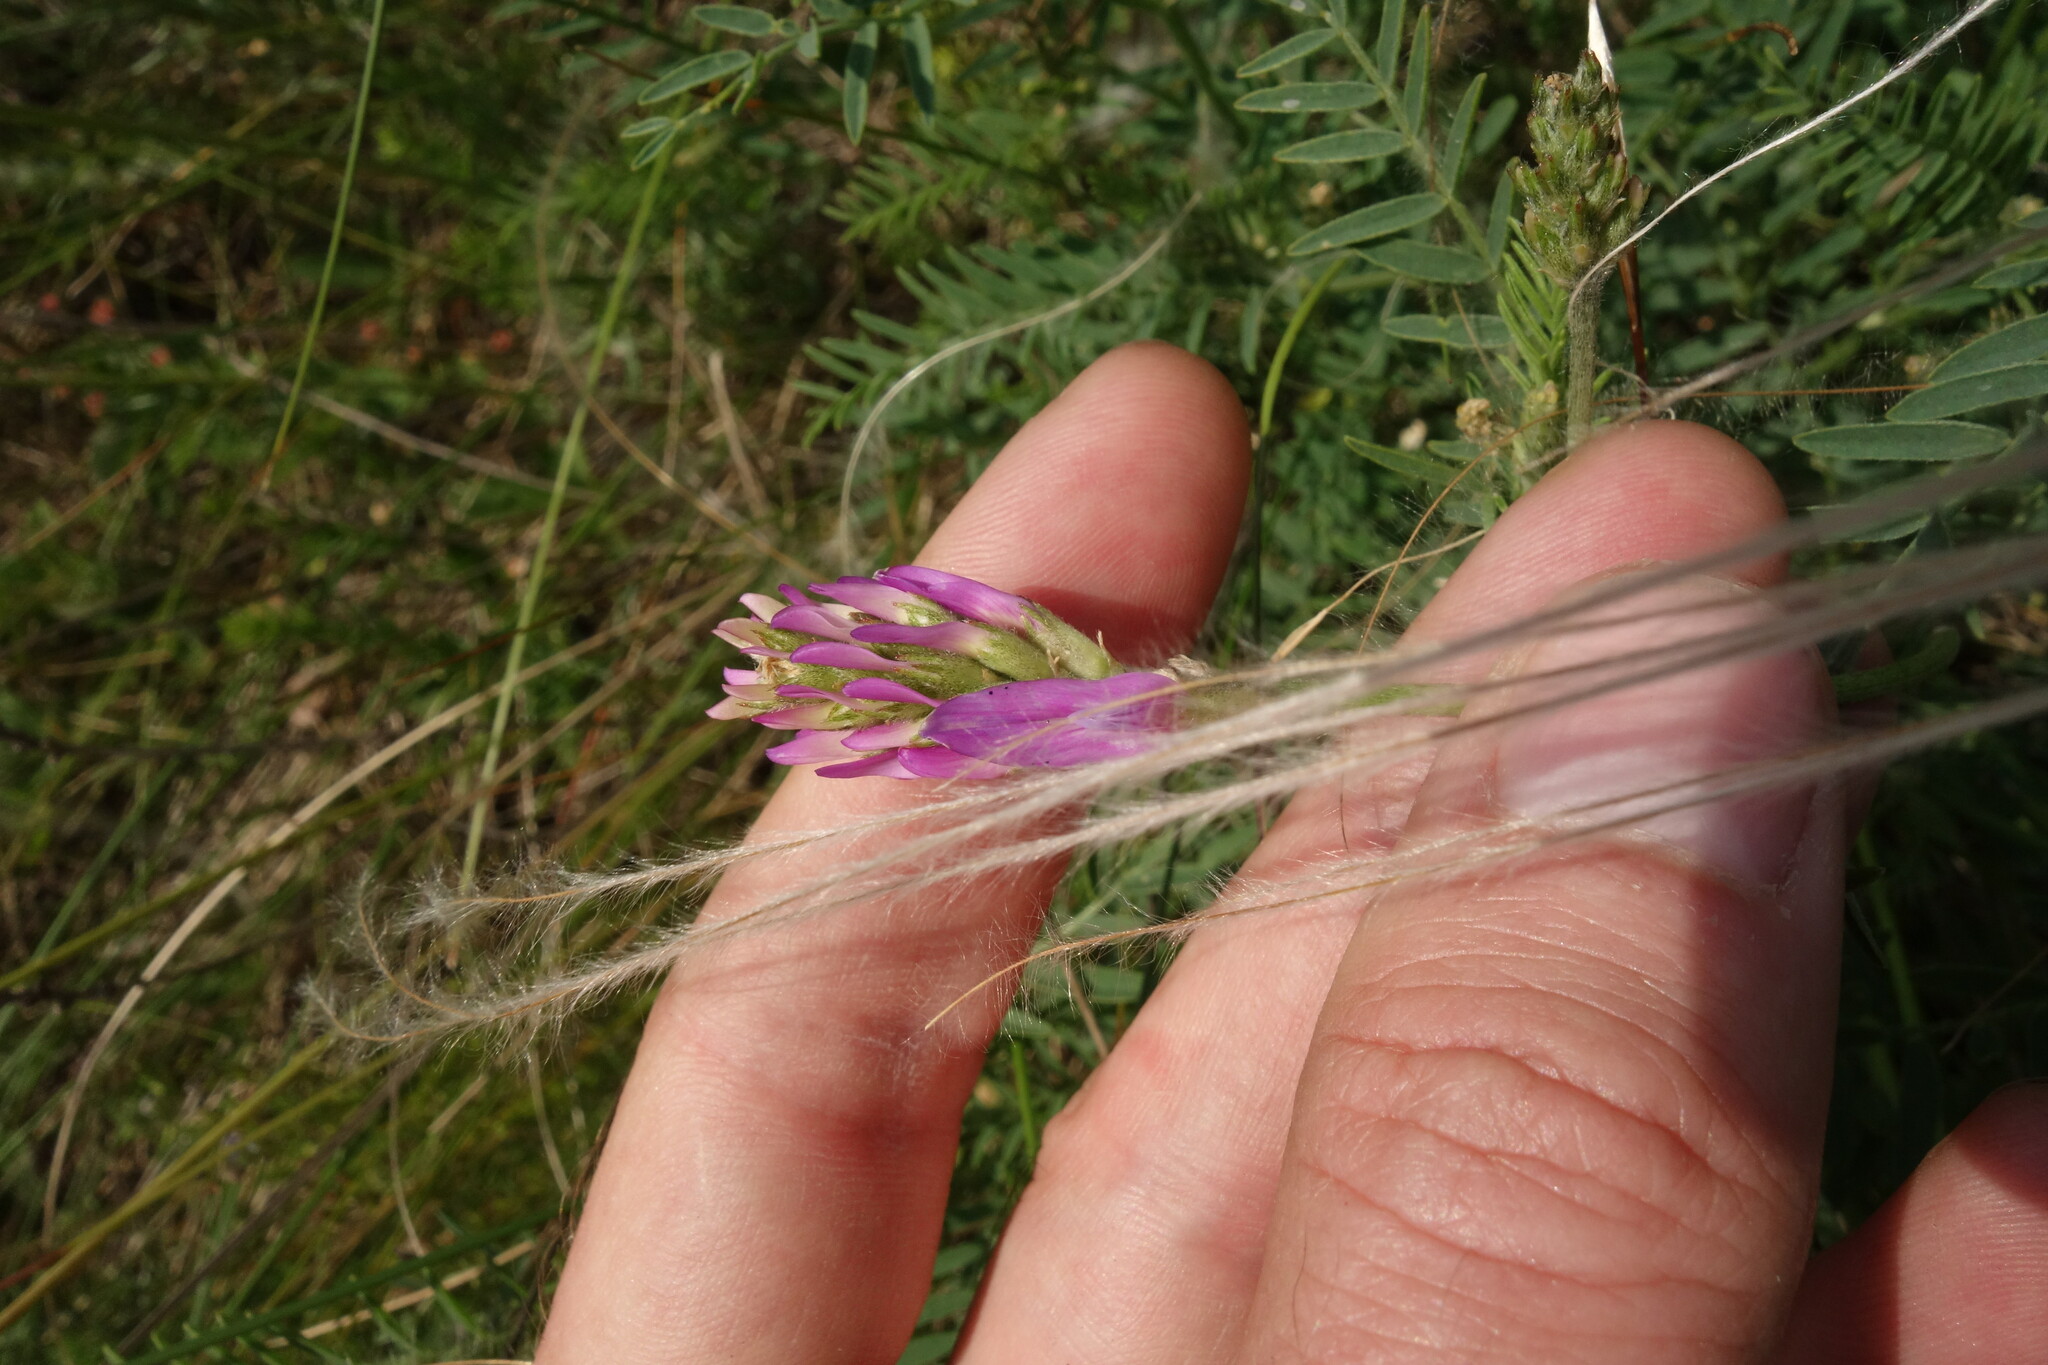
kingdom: Plantae
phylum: Tracheophyta
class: Magnoliopsida
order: Fabales
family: Fabaceae
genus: Astragalus
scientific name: Astragalus onobrychis
